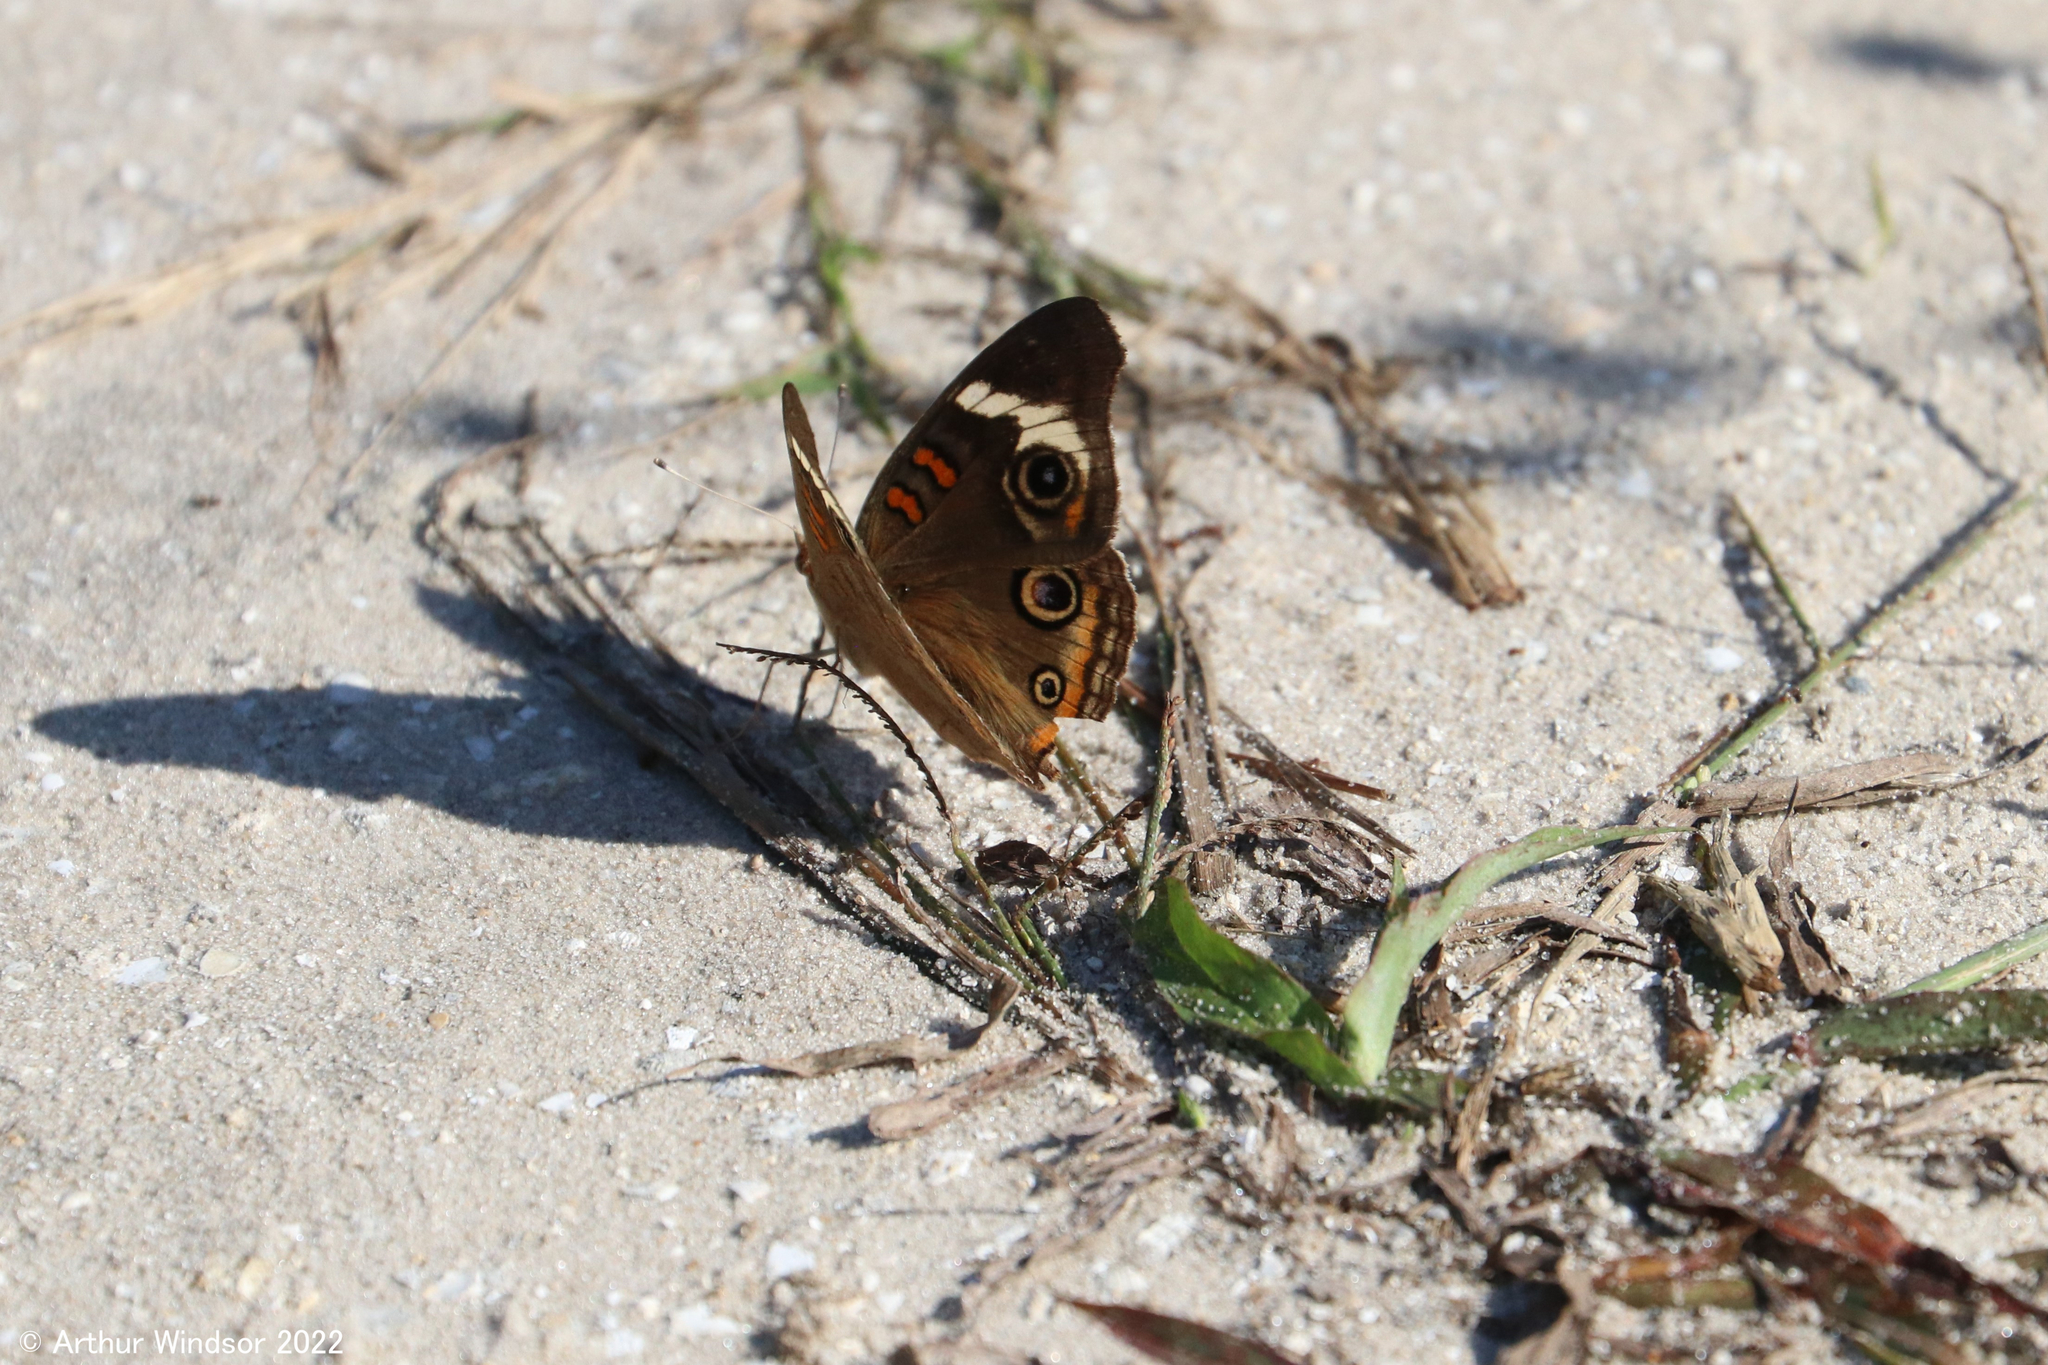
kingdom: Animalia
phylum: Arthropoda
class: Insecta
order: Lepidoptera
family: Nymphalidae
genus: Junonia
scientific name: Junonia coenia
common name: Common buckeye
